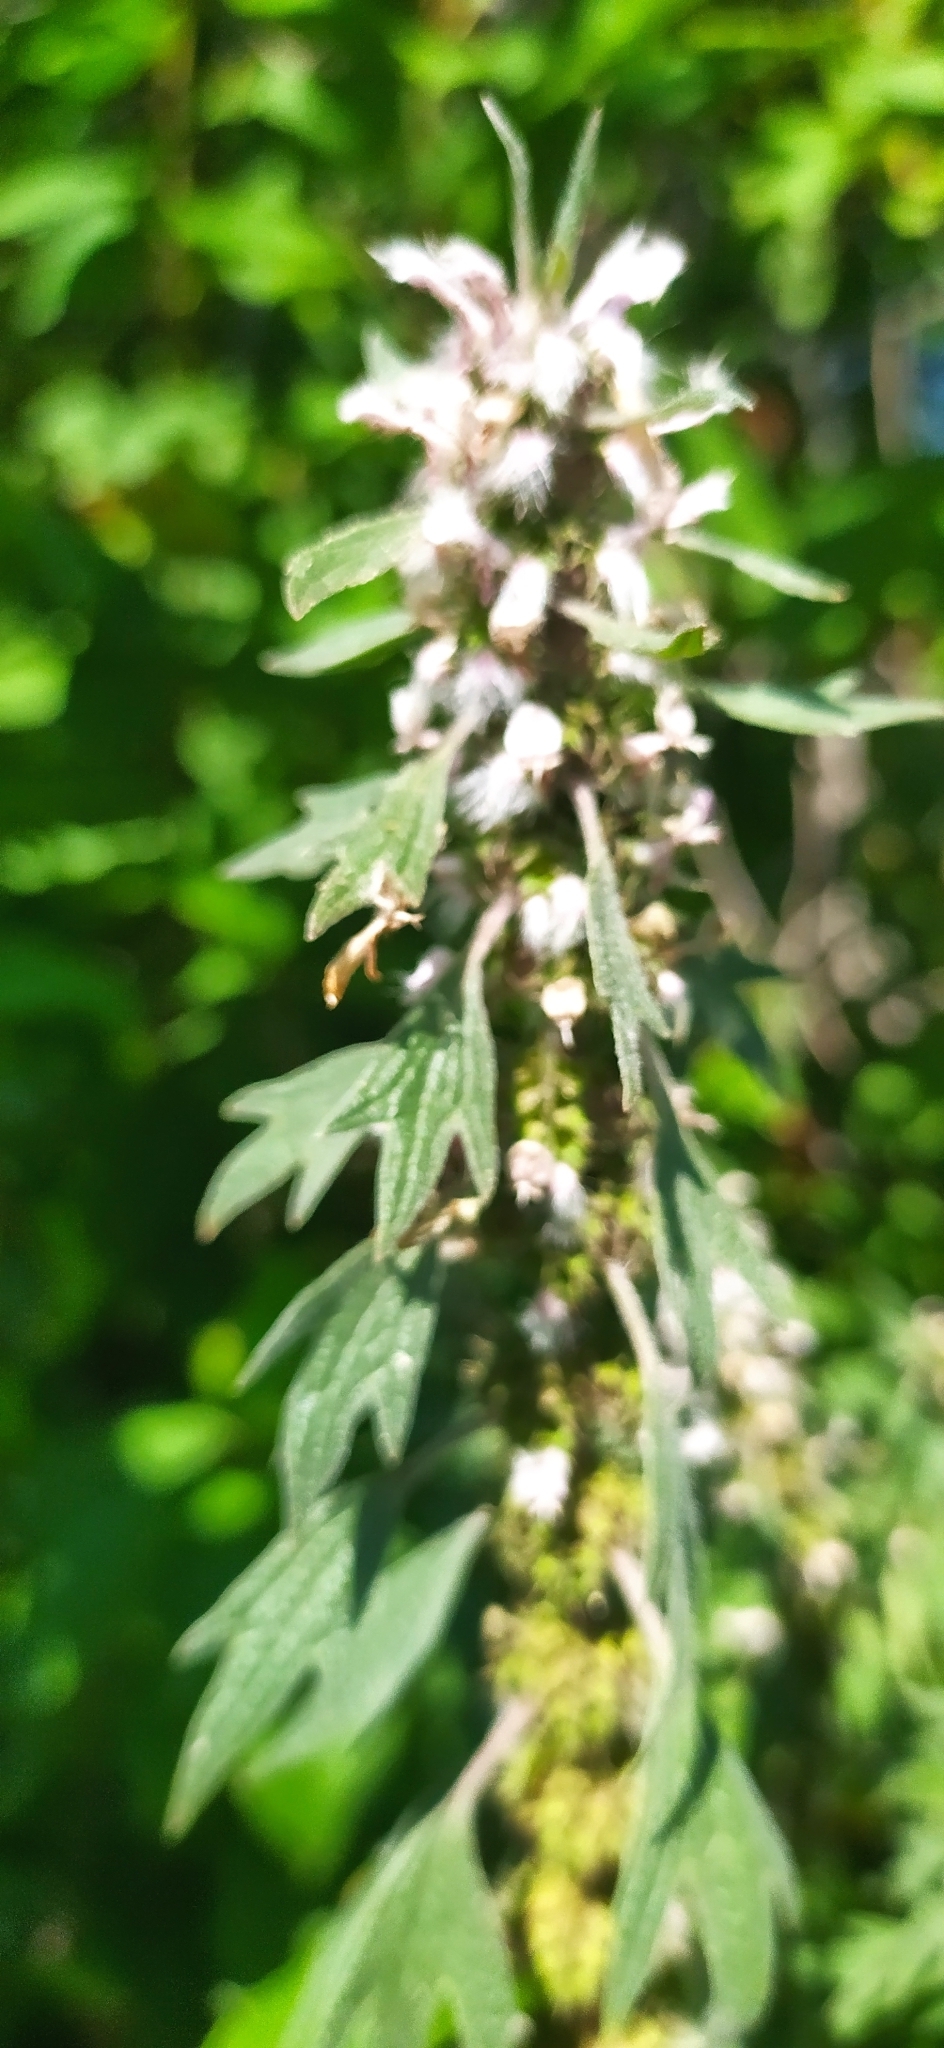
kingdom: Plantae
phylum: Tracheophyta
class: Magnoliopsida
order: Lamiales
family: Lamiaceae
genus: Leonurus
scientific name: Leonurus quinquelobatus
